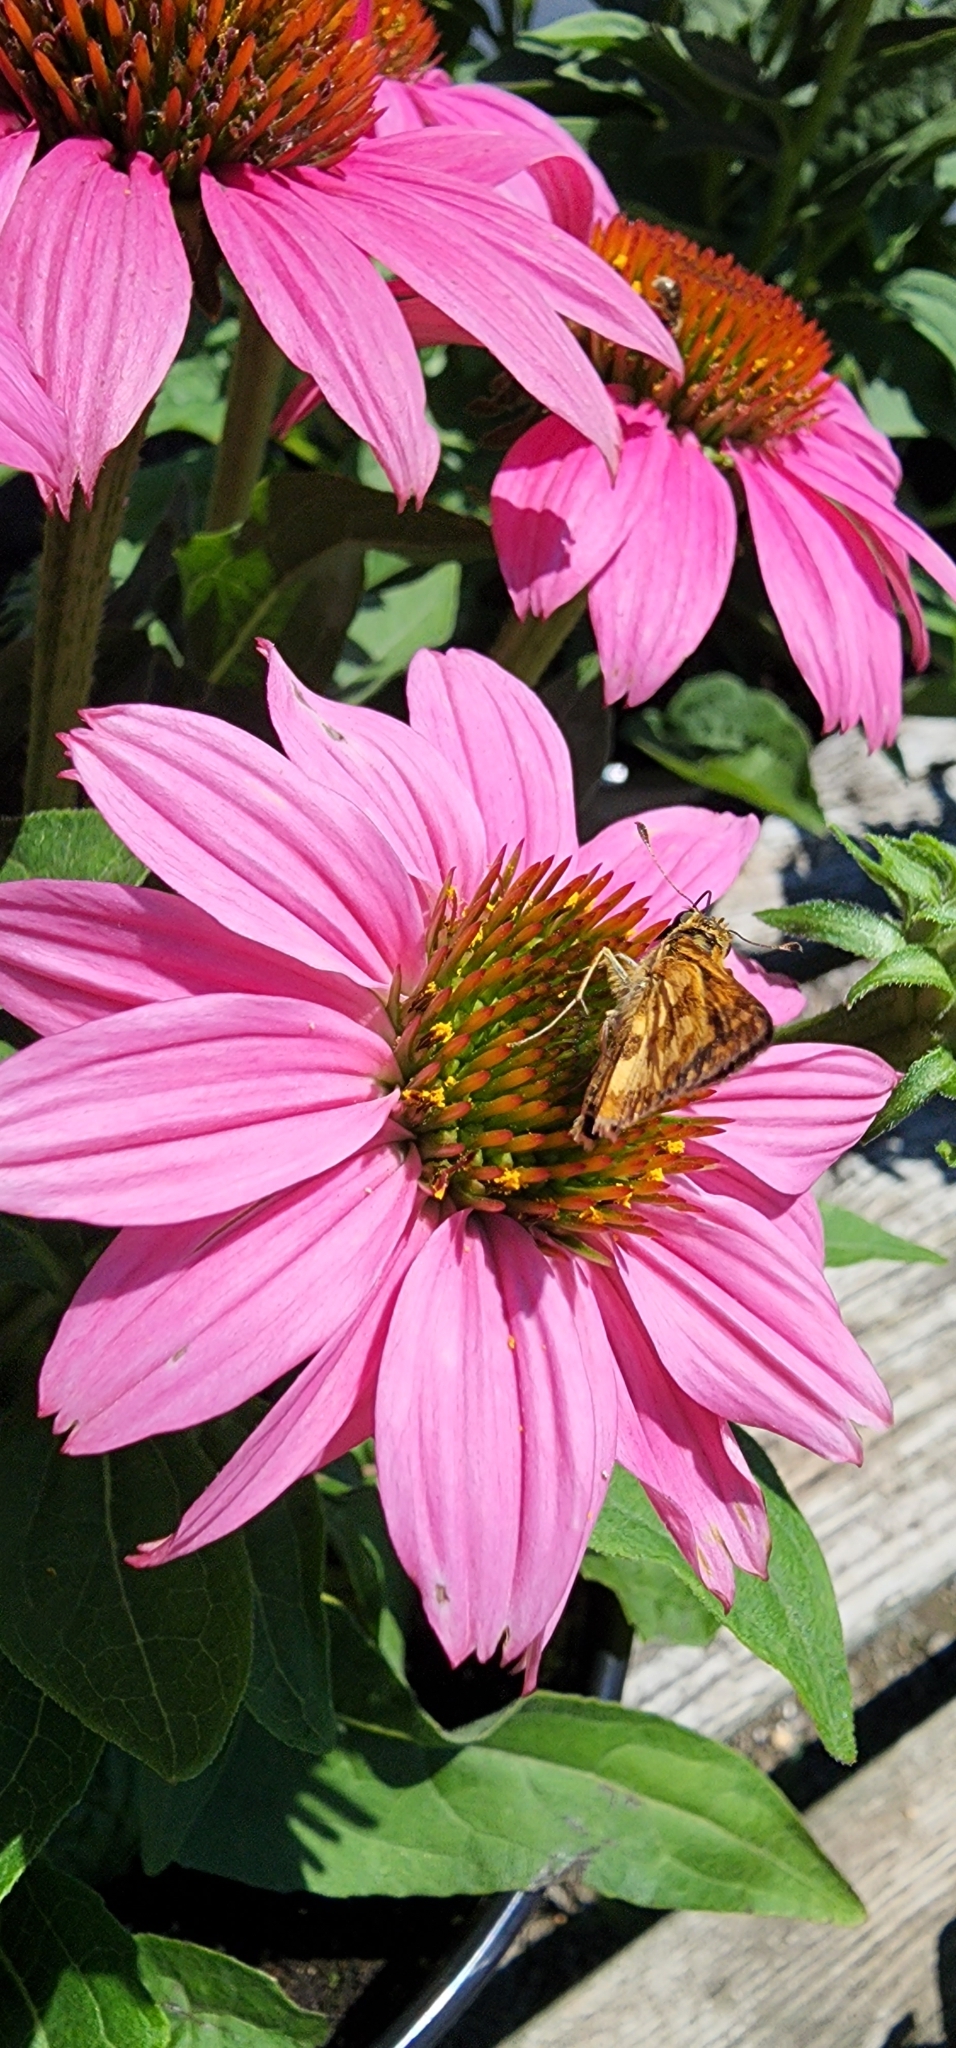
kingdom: Animalia
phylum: Arthropoda
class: Insecta
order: Lepidoptera
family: Hesperiidae
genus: Polites
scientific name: Polites coras
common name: Peck's skipper
